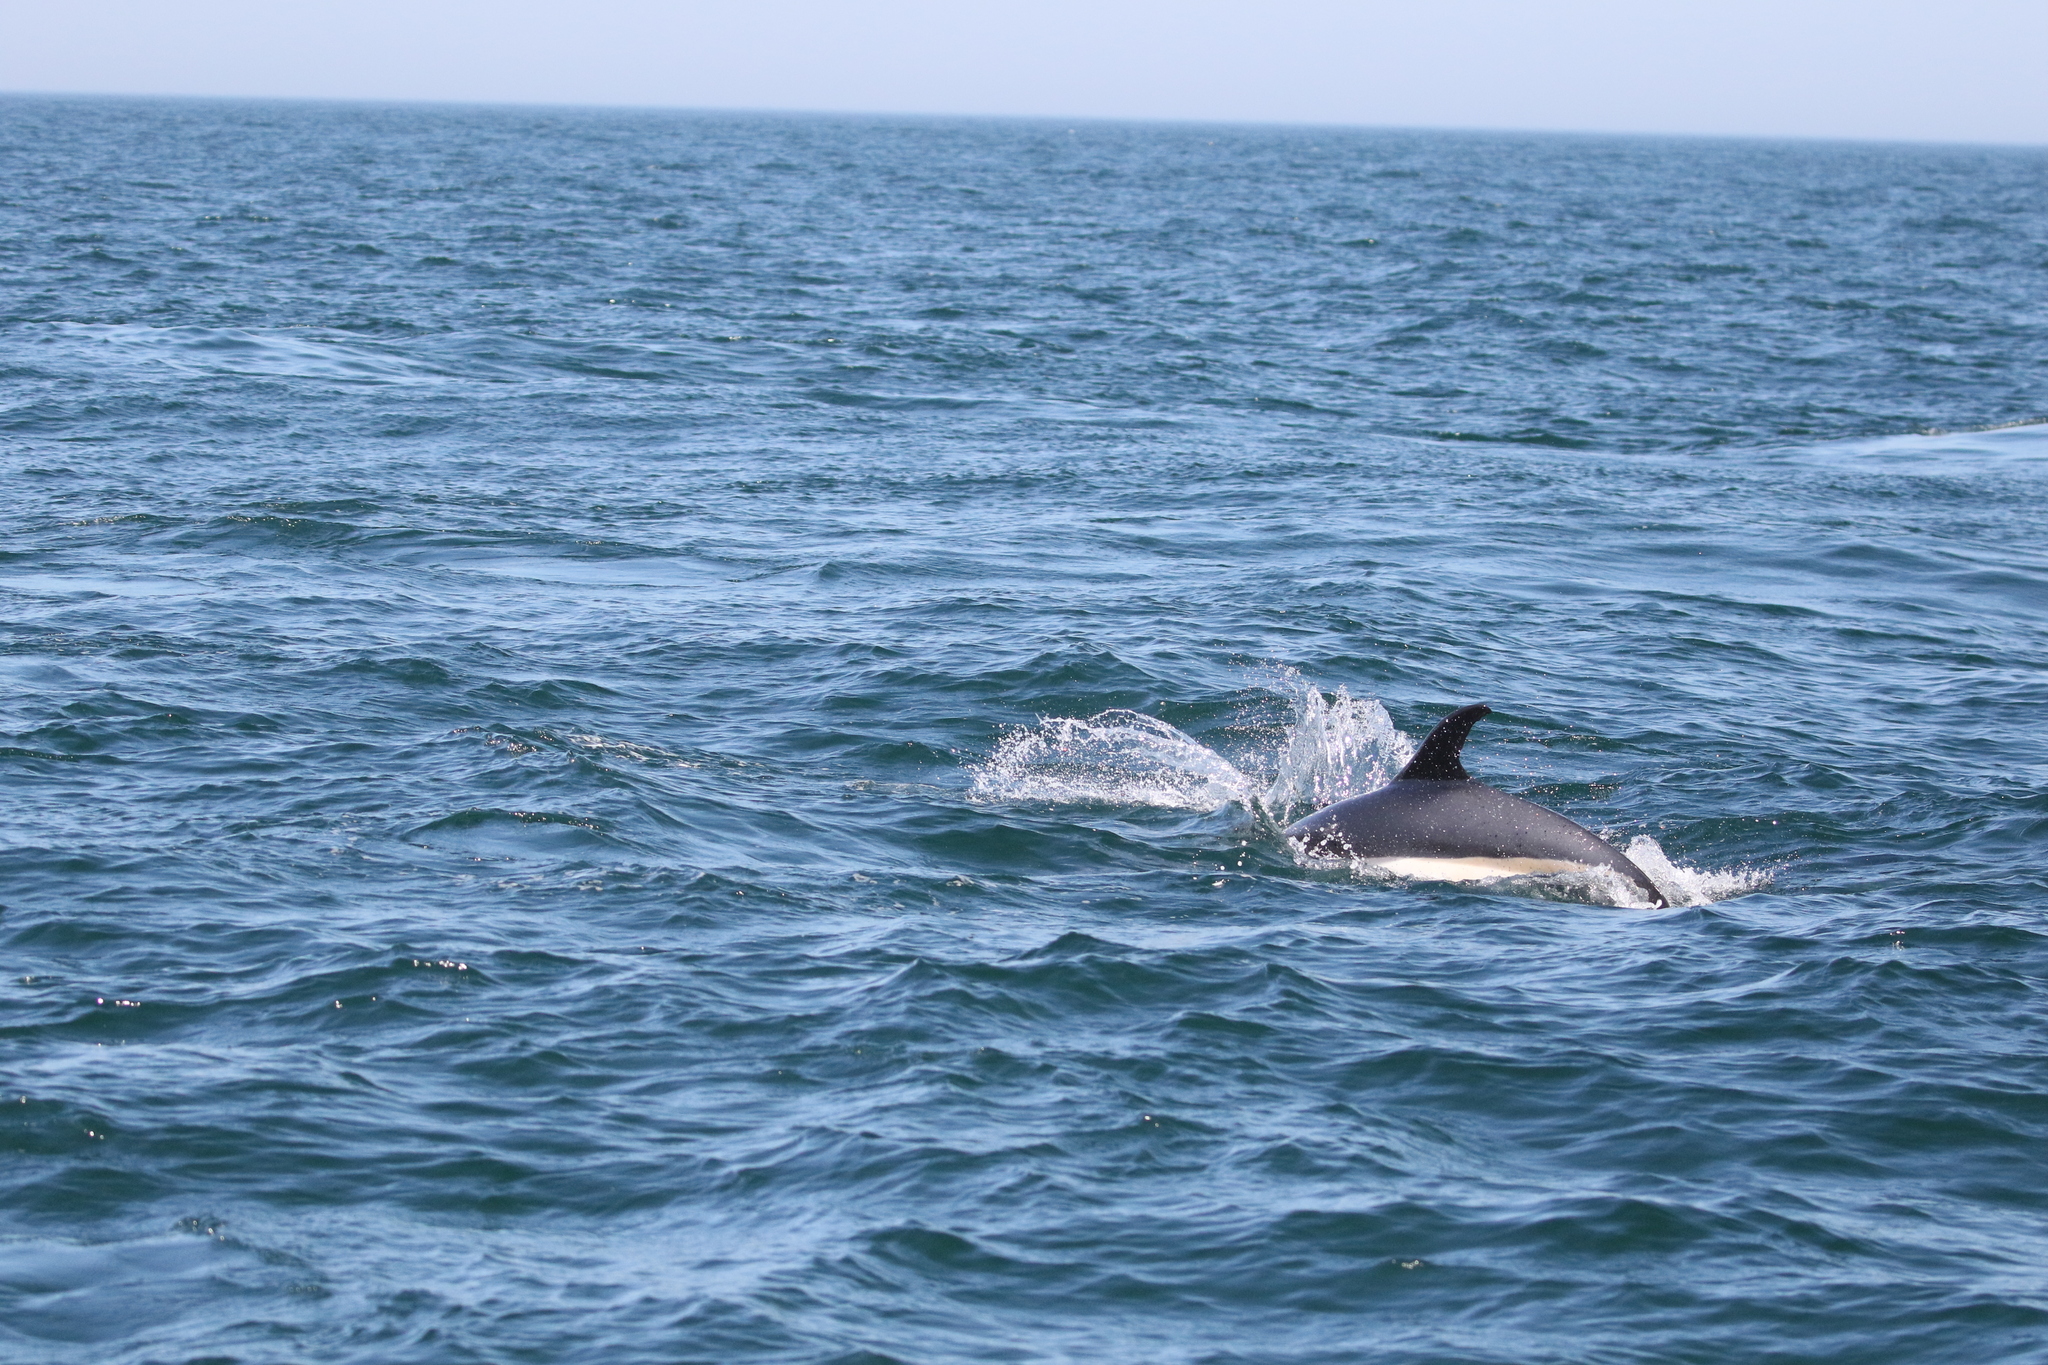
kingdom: Animalia
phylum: Chordata
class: Mammalia
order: Cetacea
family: Delphinidae
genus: Lagenorhynchus
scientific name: Lagenorhynchus acutus
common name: Atlantic white-sided dolphin
